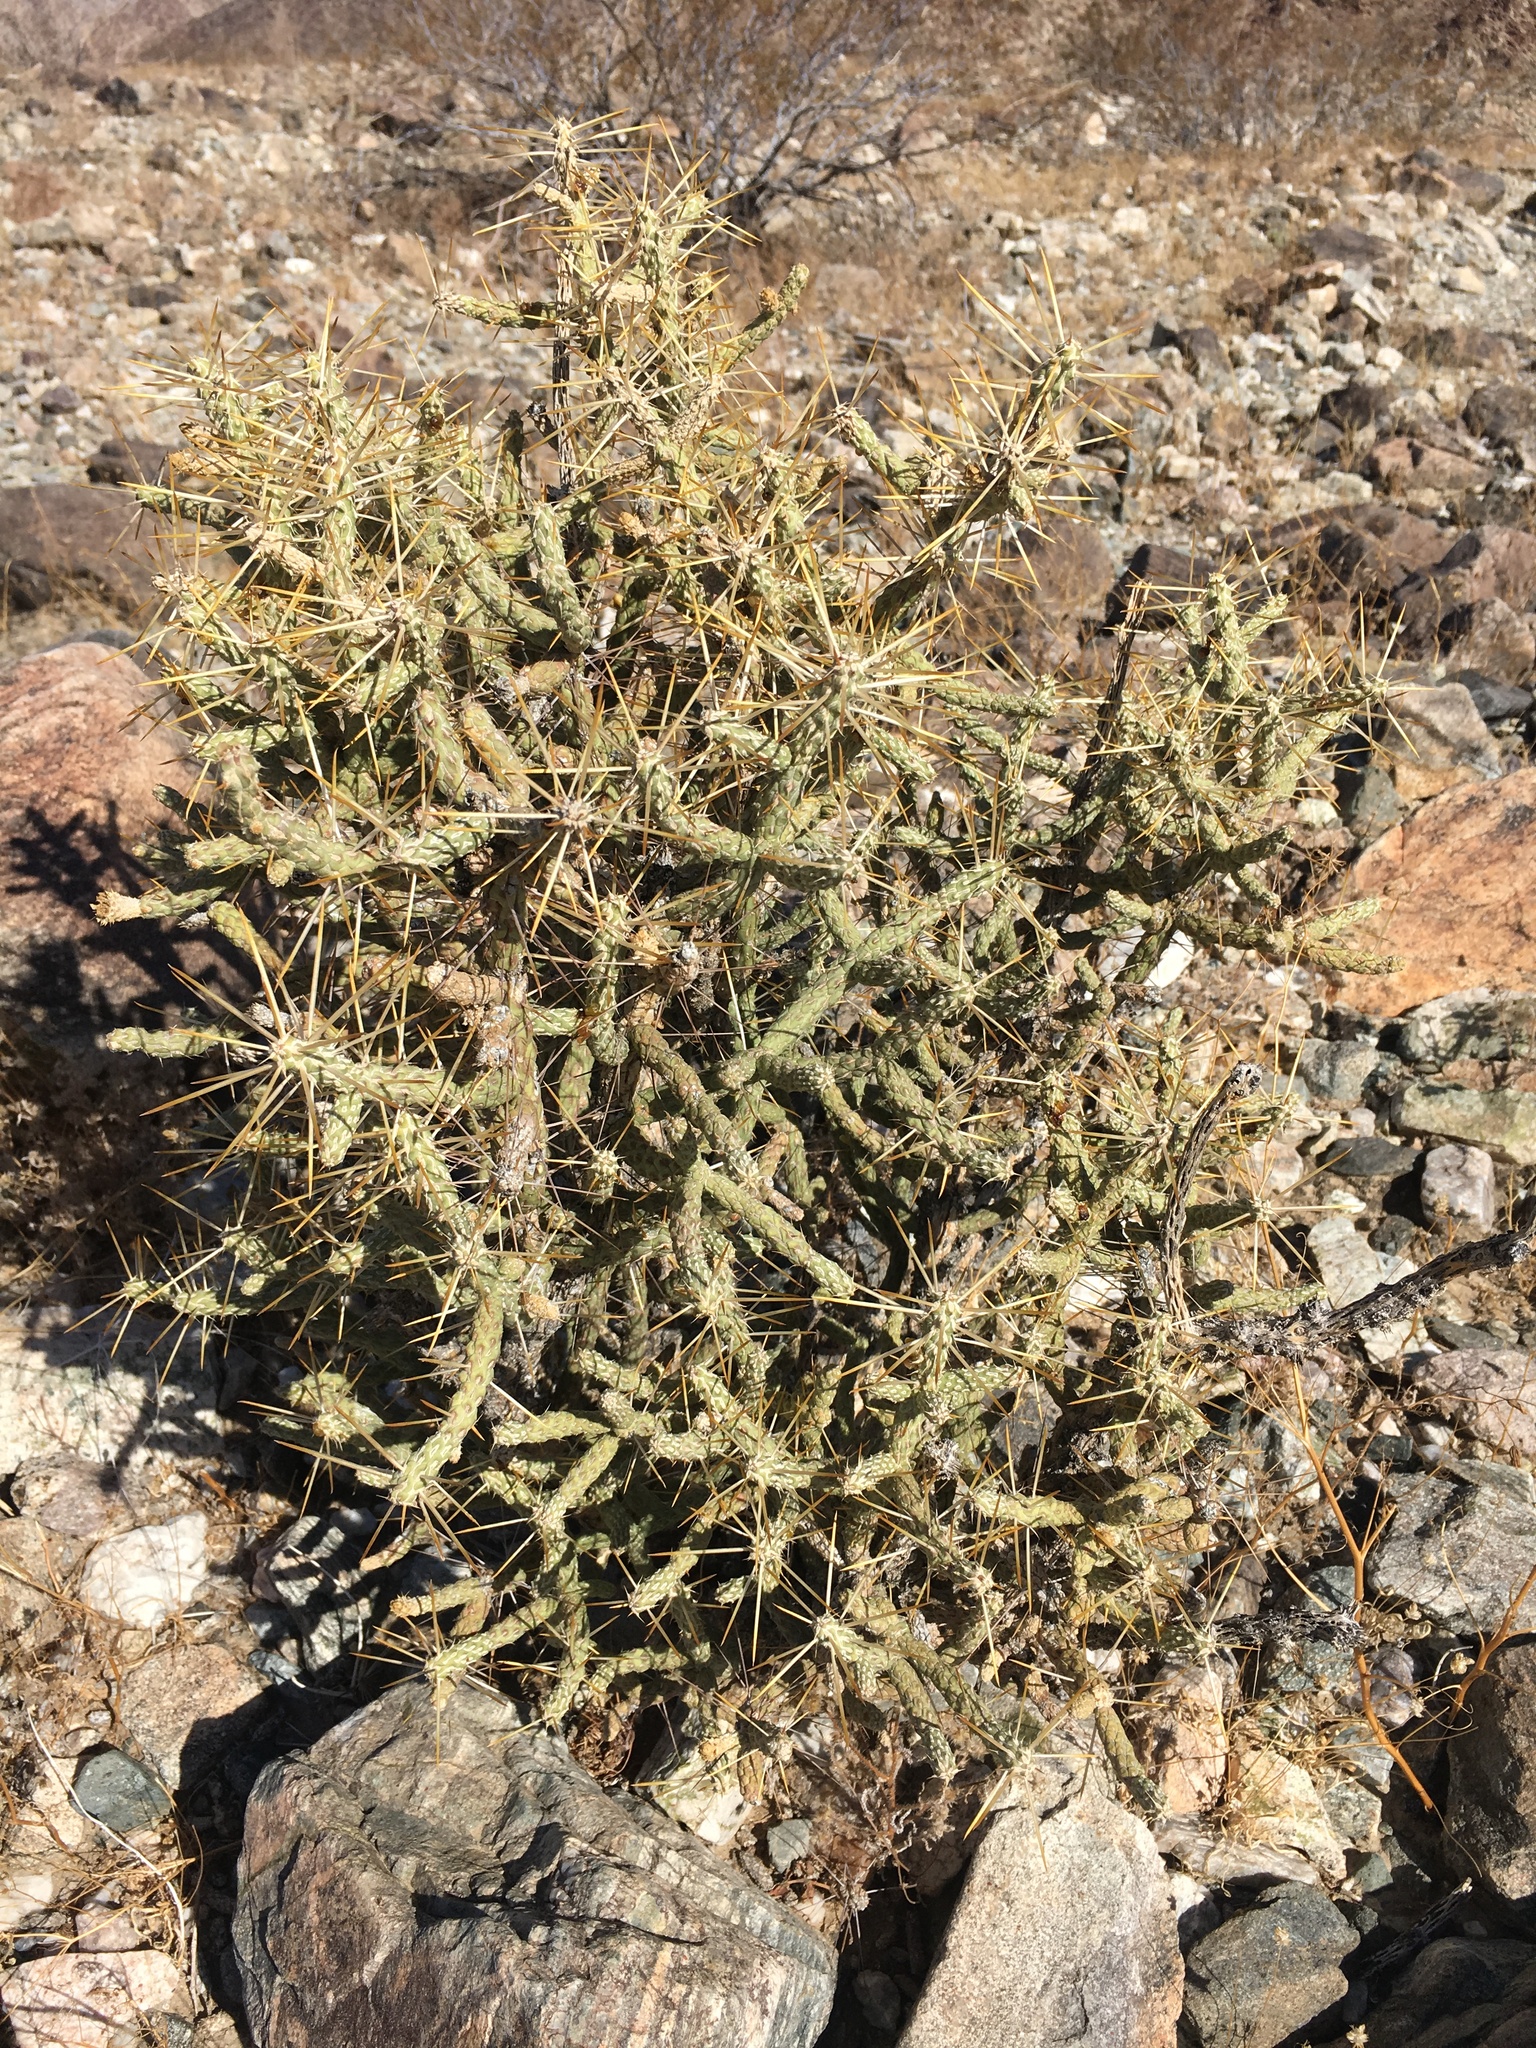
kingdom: Plantae
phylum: Tracheophyta
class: Magnoliopsida
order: Caryophyllales
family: Cactaceae
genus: Cylindropuntia
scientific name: Cylindropuntia ramosissima
